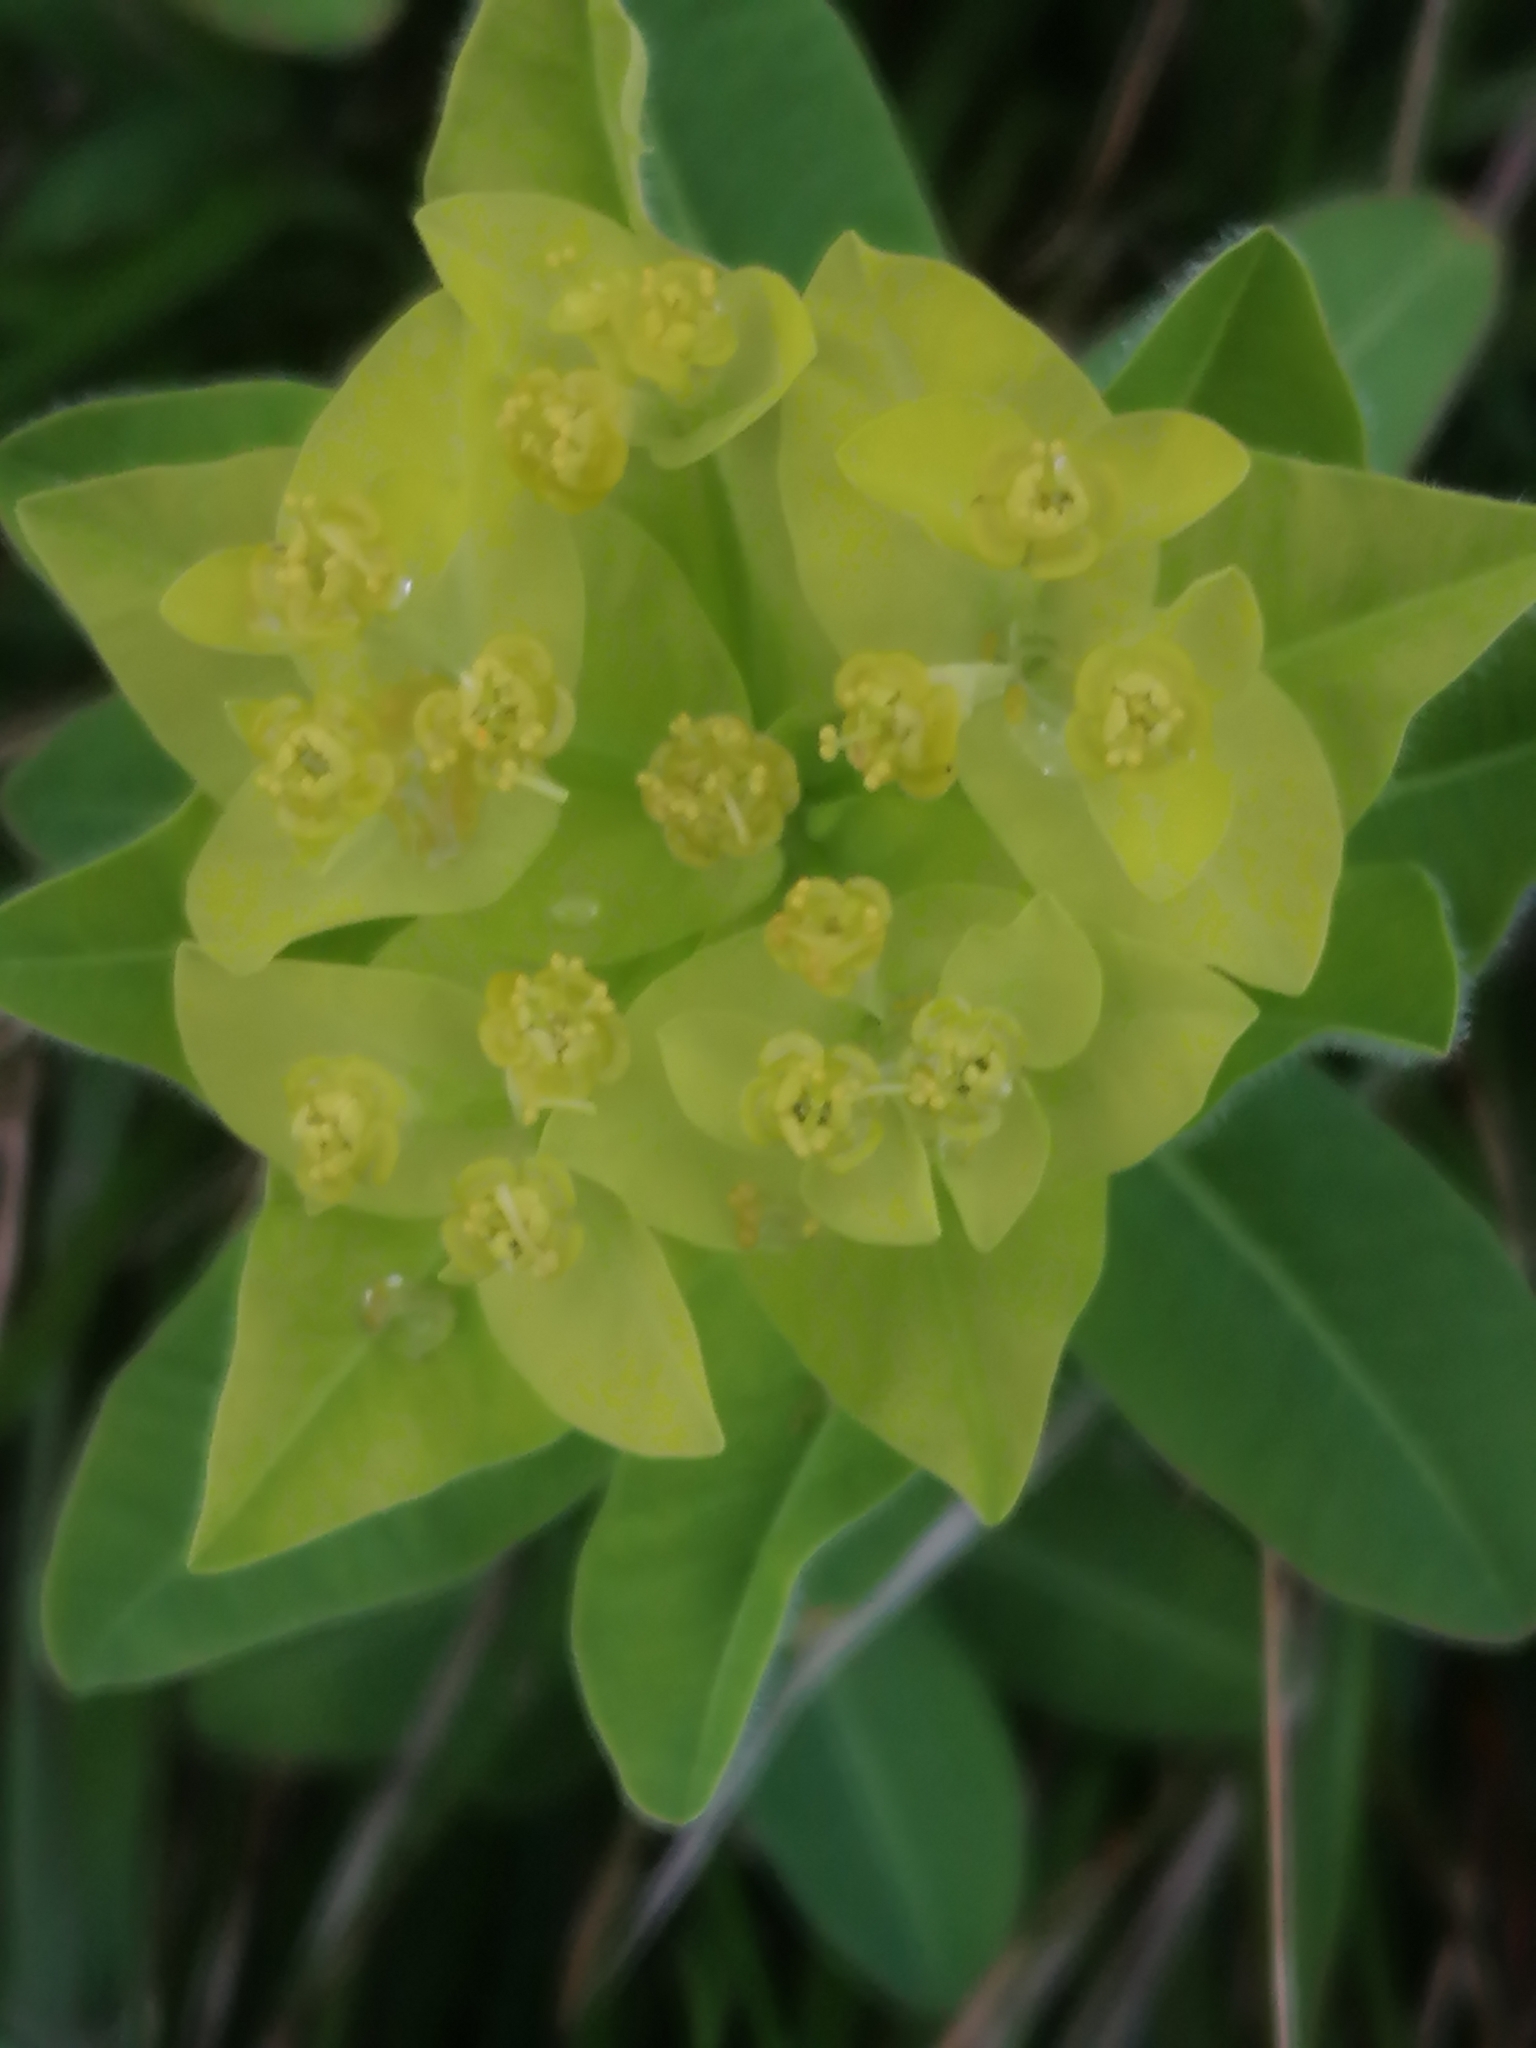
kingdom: Plantae
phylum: Tracheophyta
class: Magnoliopsida
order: Malpighiales
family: Euphorbiaceae
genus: Euphorbia
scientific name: Euphorbia hyberna
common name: Irish spurge
